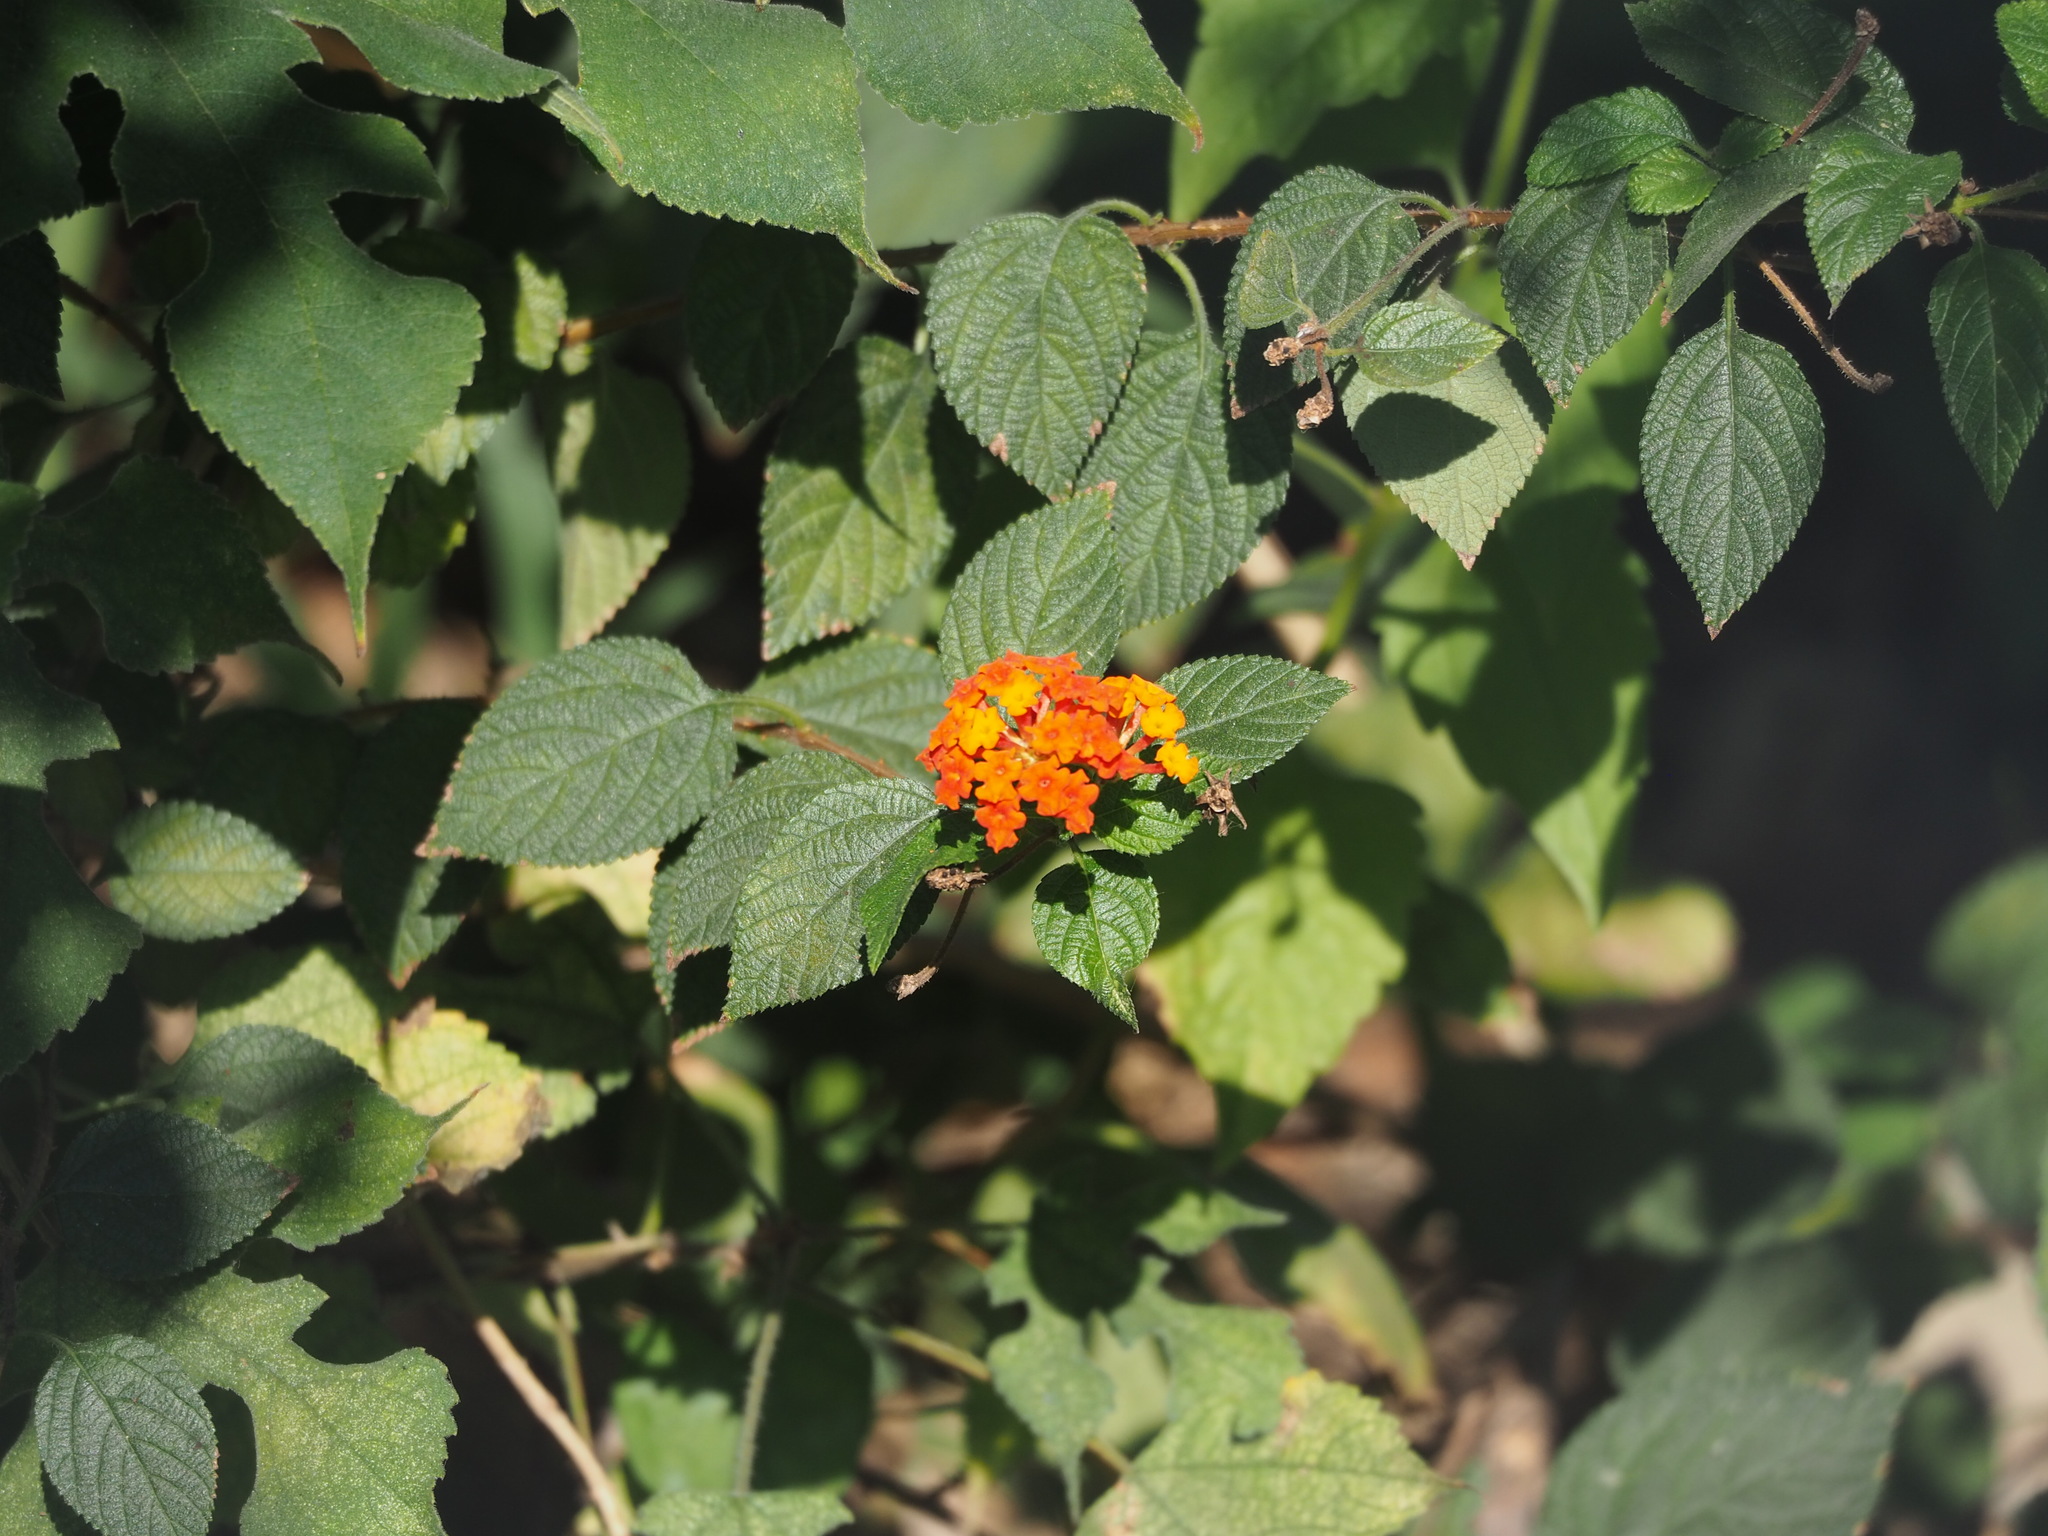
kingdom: Plantae
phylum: Tracheophyta
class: Magnoliopsida
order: Lamiales
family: Verbenaceae
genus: Lantana
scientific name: Lantana camara
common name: Lantana
